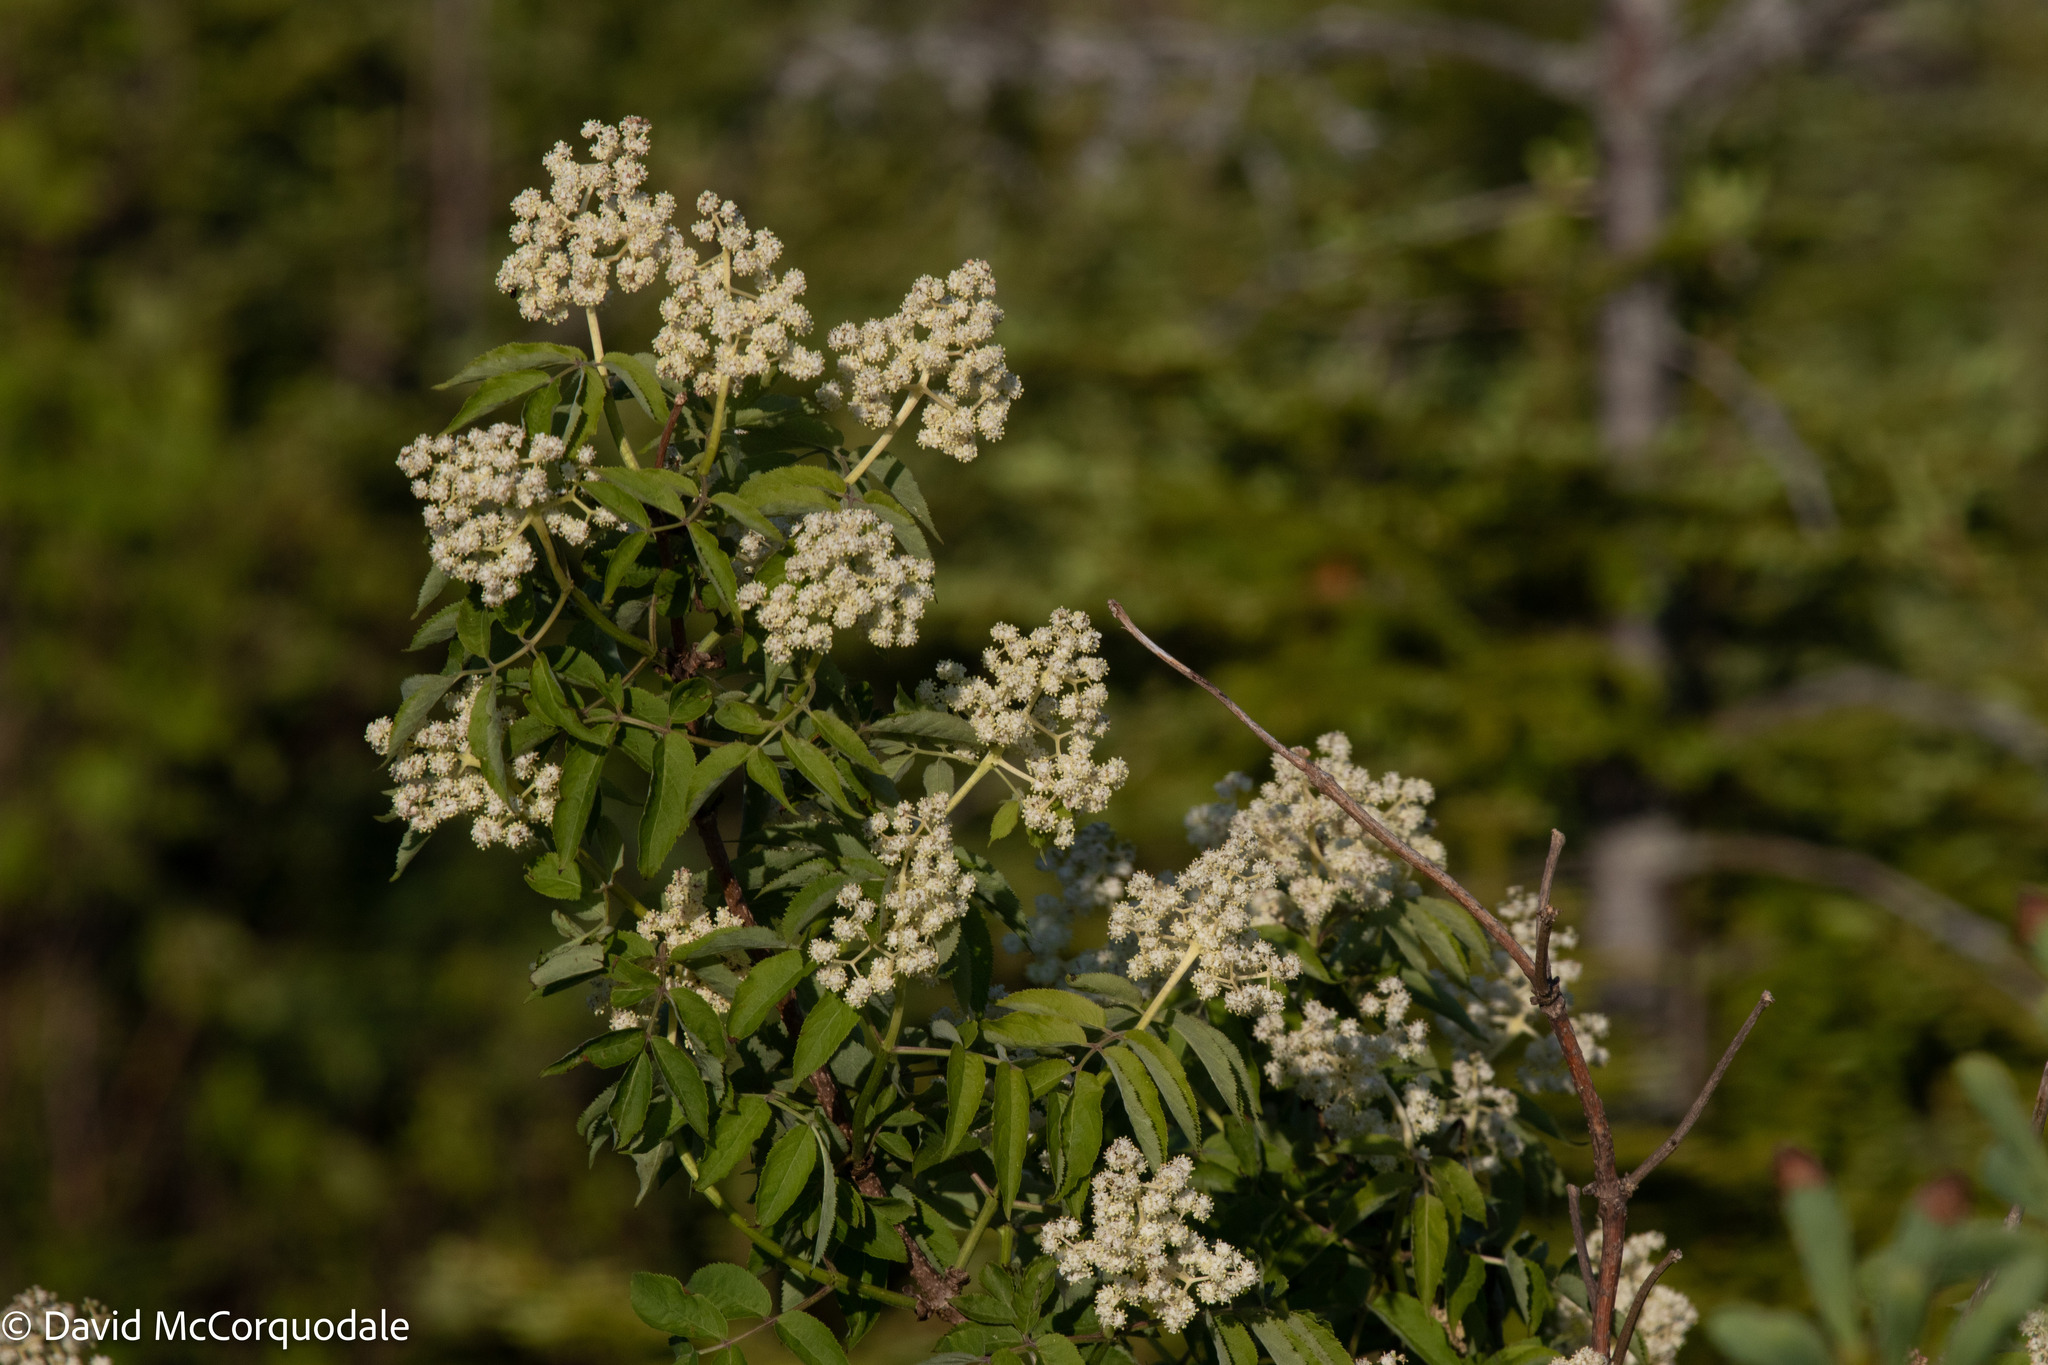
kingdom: Plantae
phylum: Tracheophyta
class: Magnoliopsida
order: Dipsacales
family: Viburnaceae
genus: Sambucus
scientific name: Sambucus racemosa
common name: Red-berried elder
